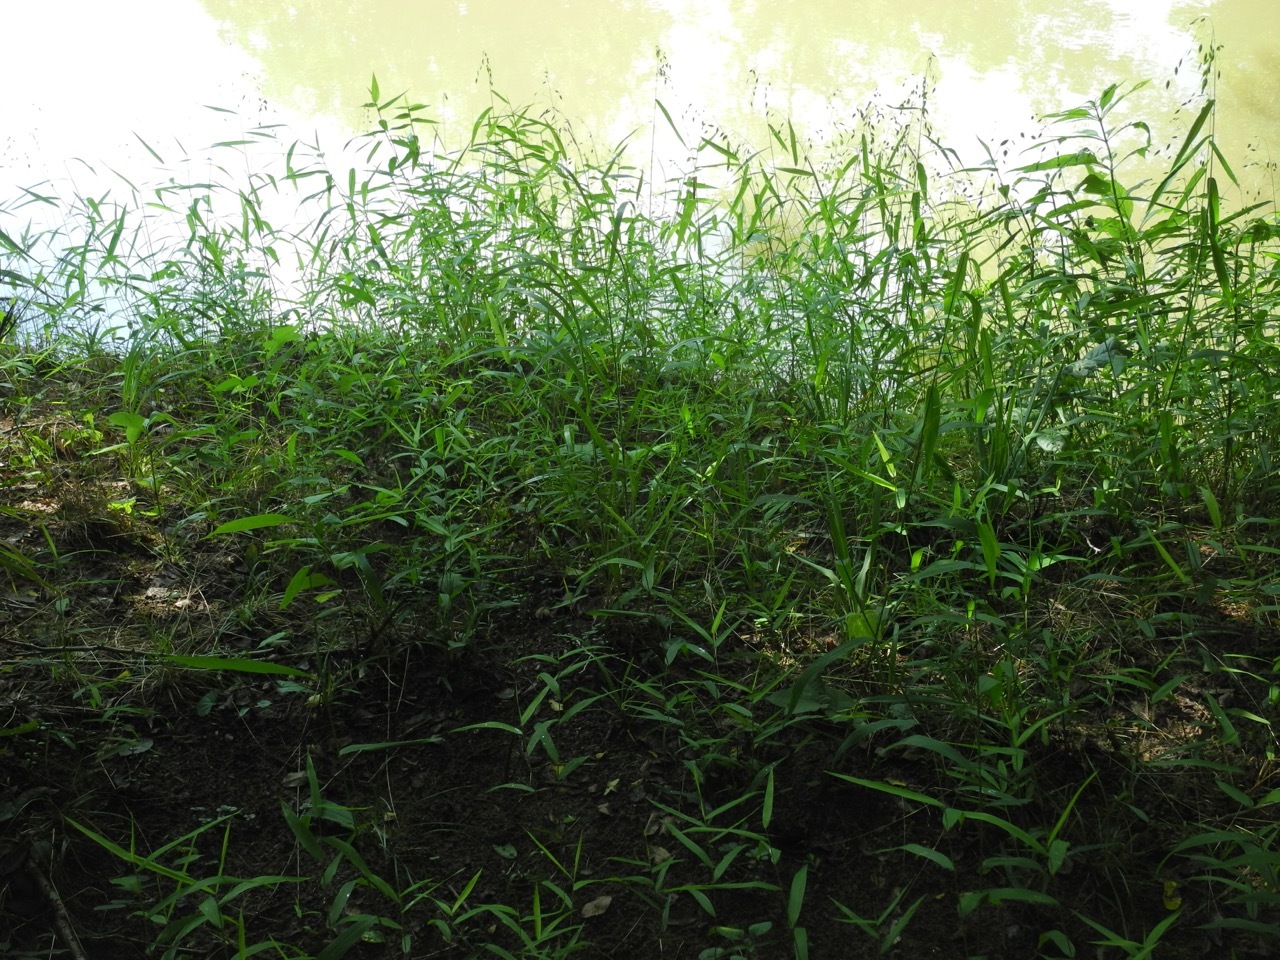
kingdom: Plantae
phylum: Tracheophyta
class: Magnoliopsida
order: Saxifragales
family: Crassulaceae
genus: Sedum
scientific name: Sedum ternatum
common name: Wild stonecrop
